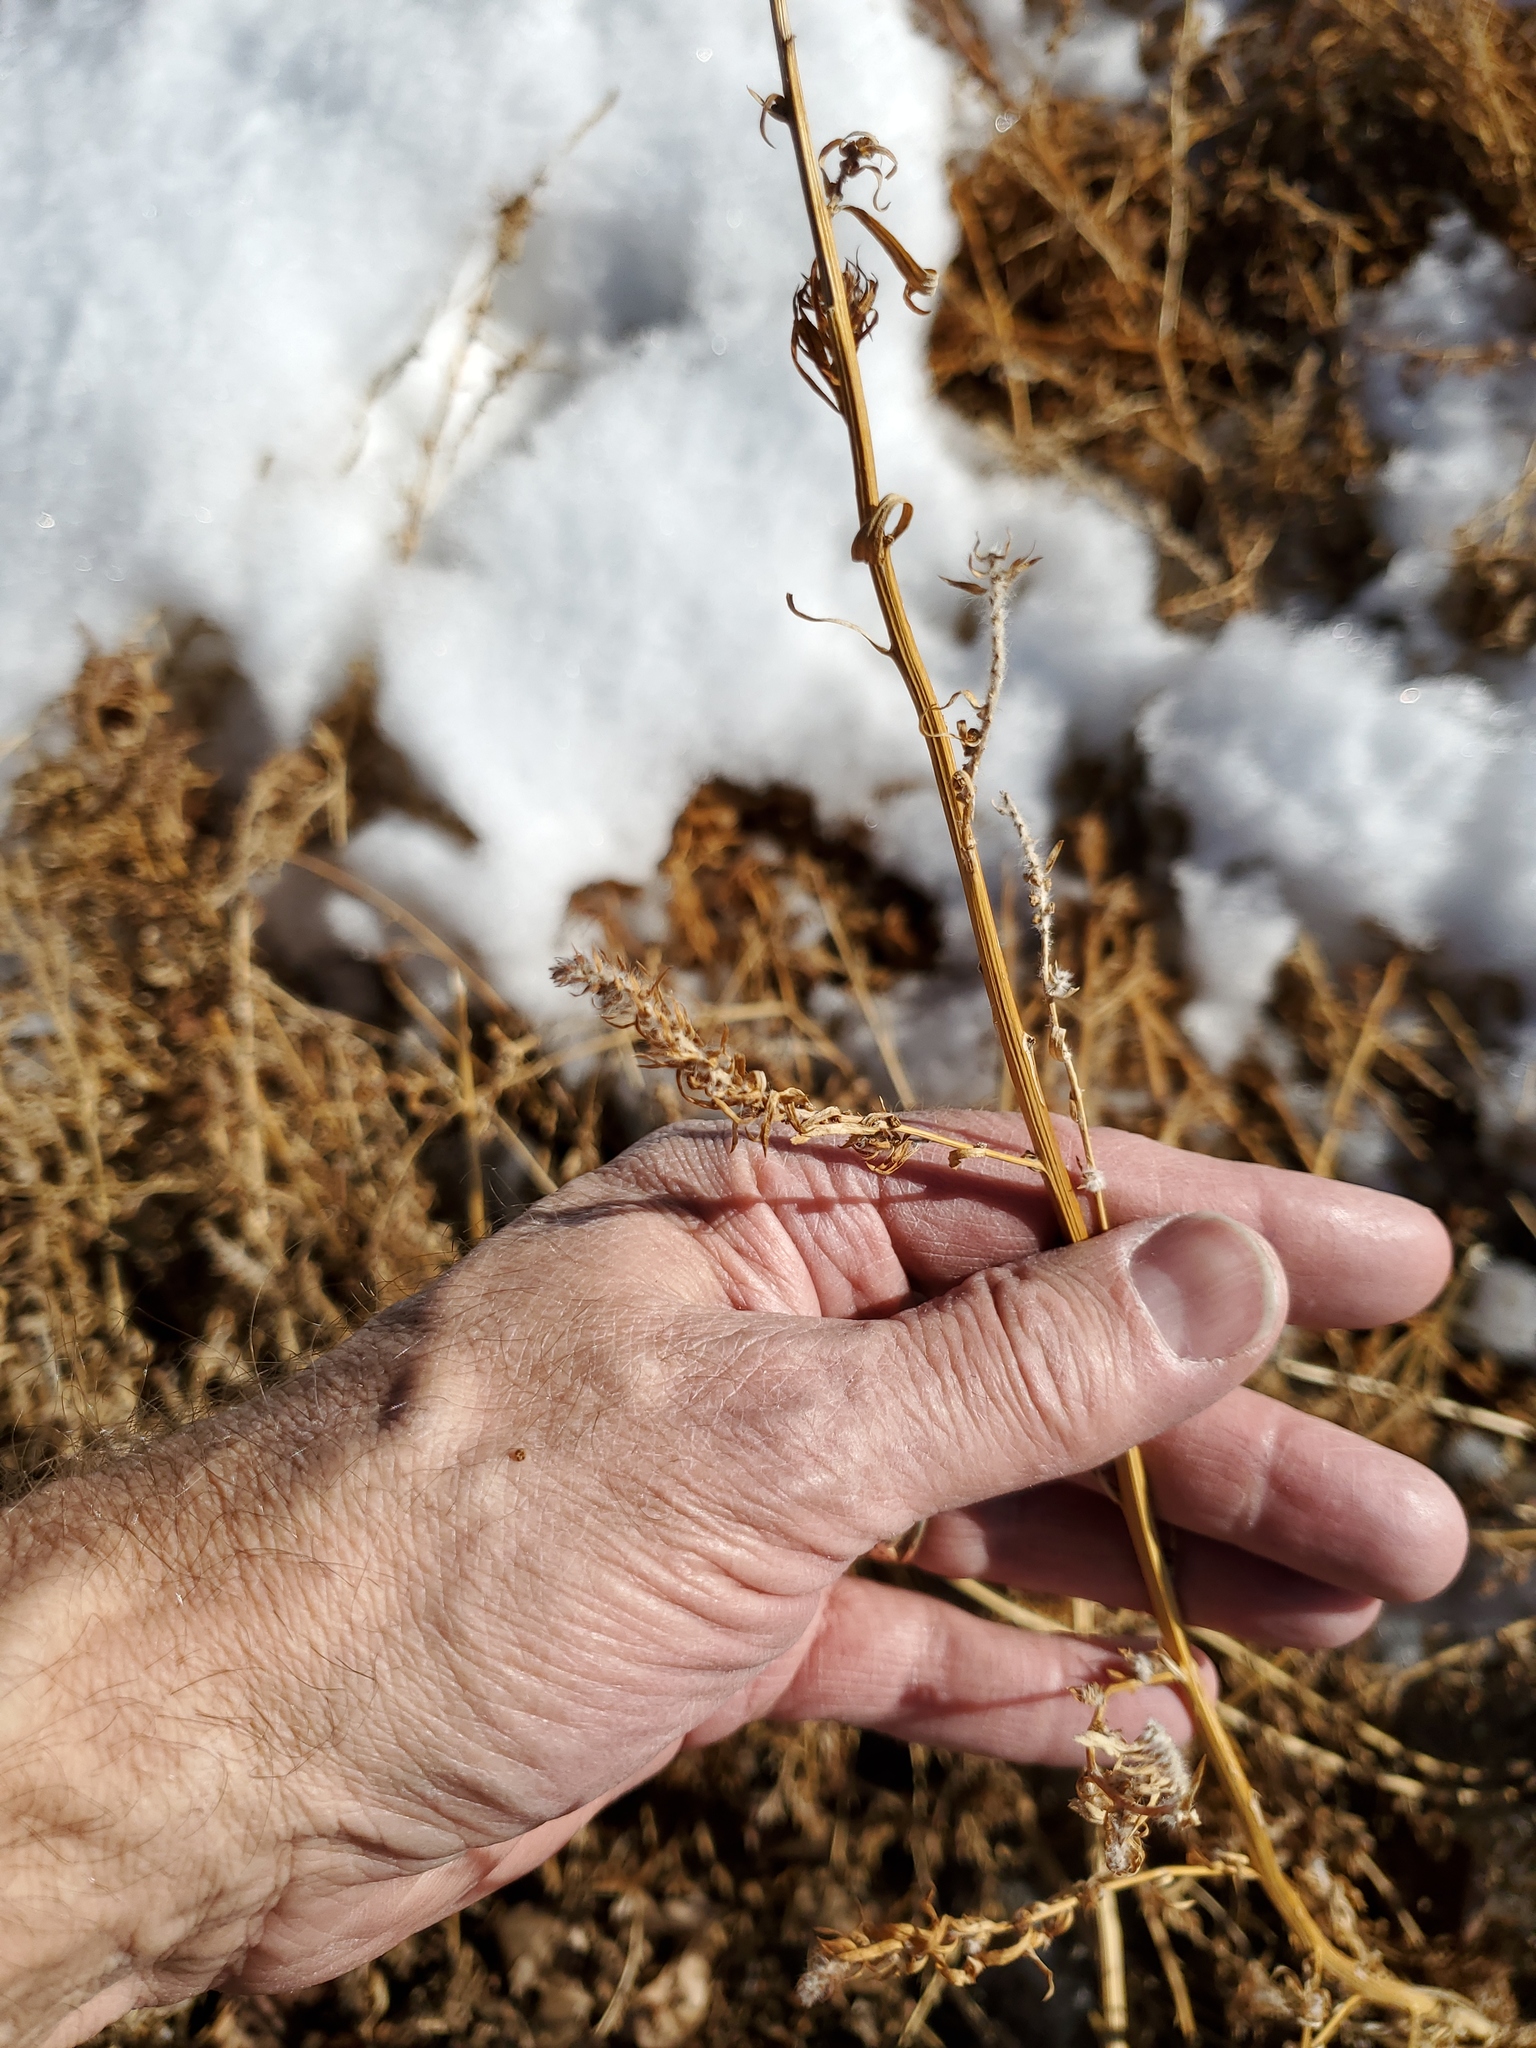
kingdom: Plantae
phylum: Tracheophyta
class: Magnoliopsida
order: Caryophyllales
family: Amaranthaceae
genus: Bassia
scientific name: Bassia scoparia
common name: Belvedere
